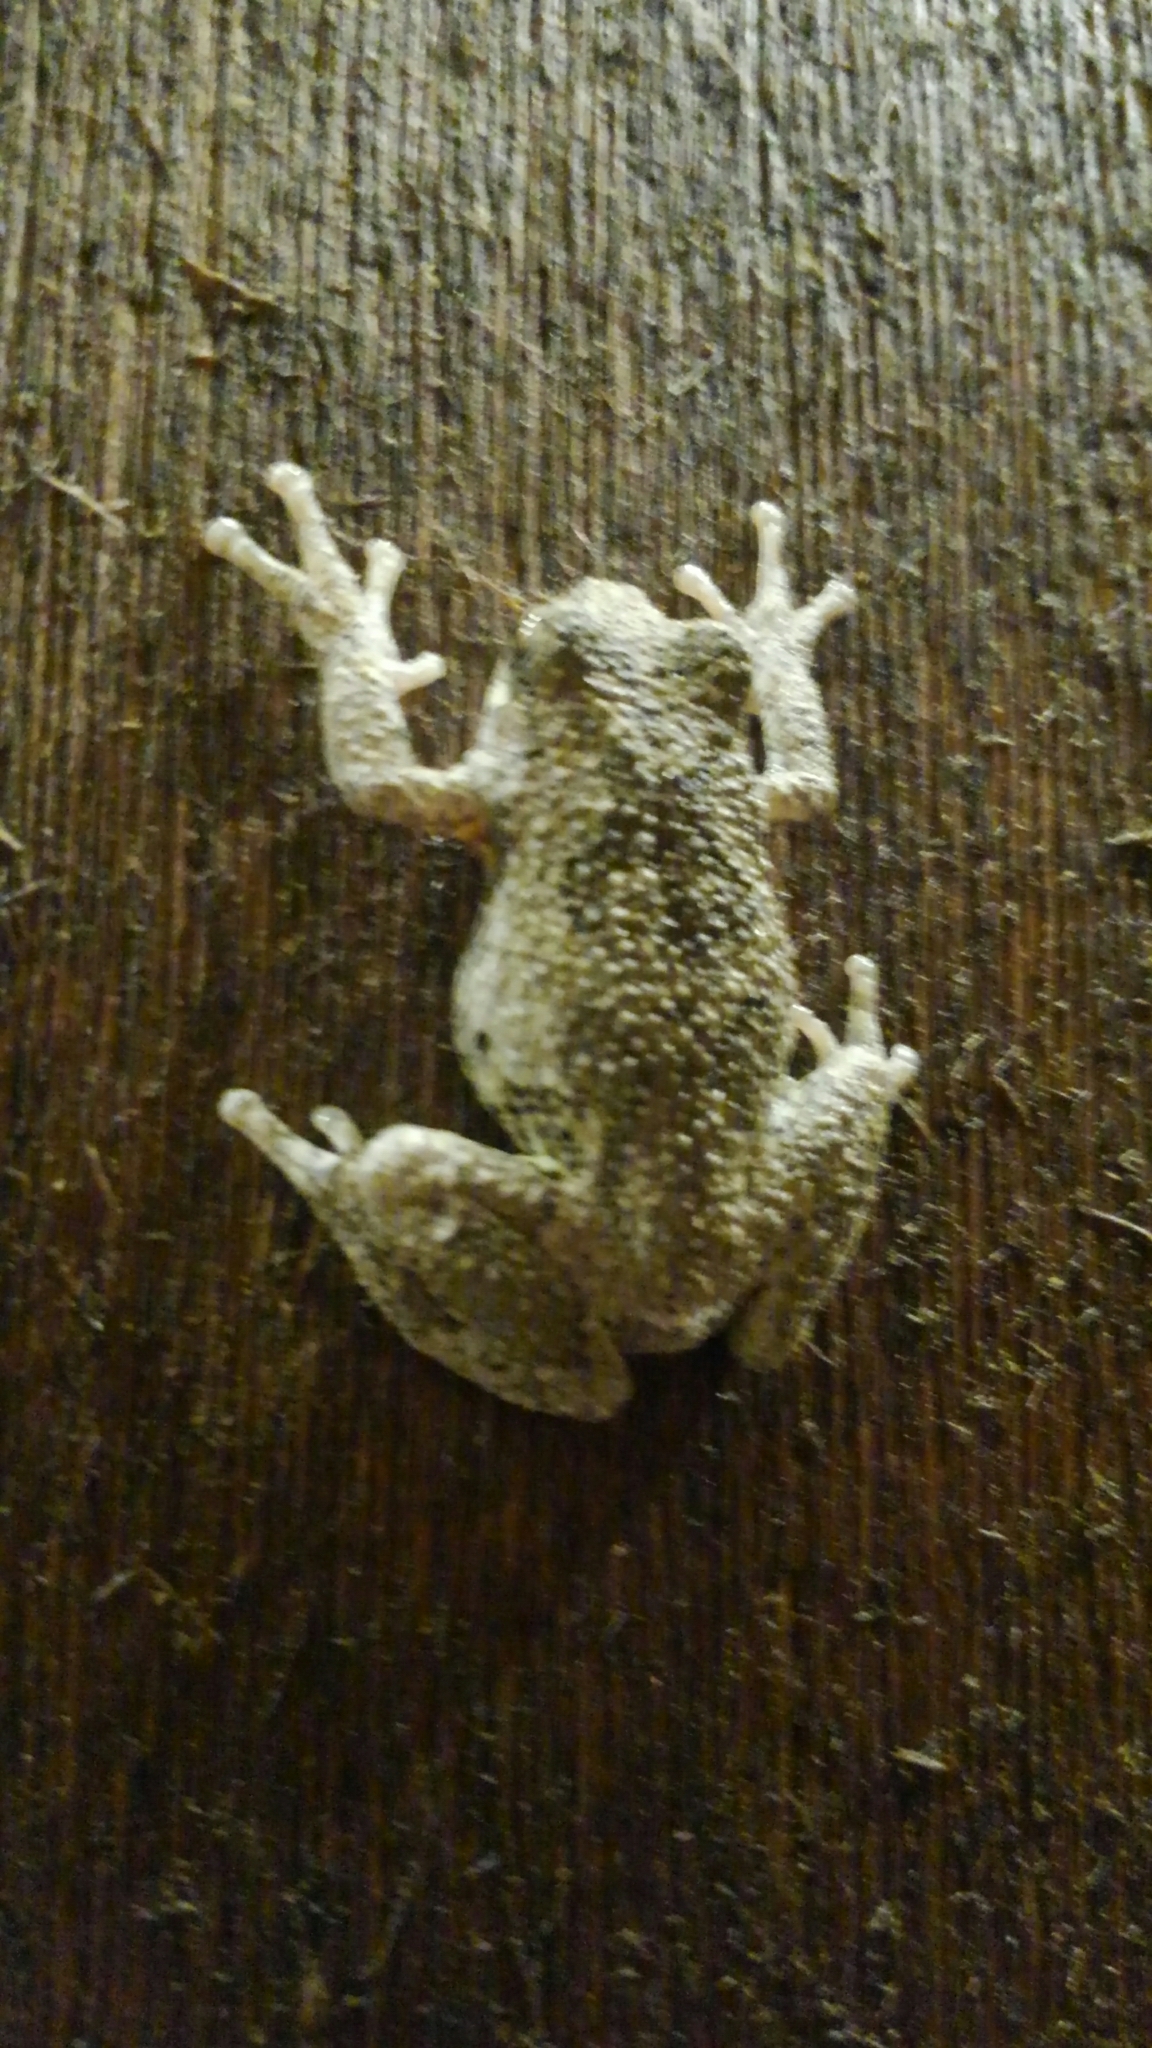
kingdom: Animalia
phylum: Chordata
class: Amphibia
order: Anura
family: Hylidae
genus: Hyla
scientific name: Hyla
